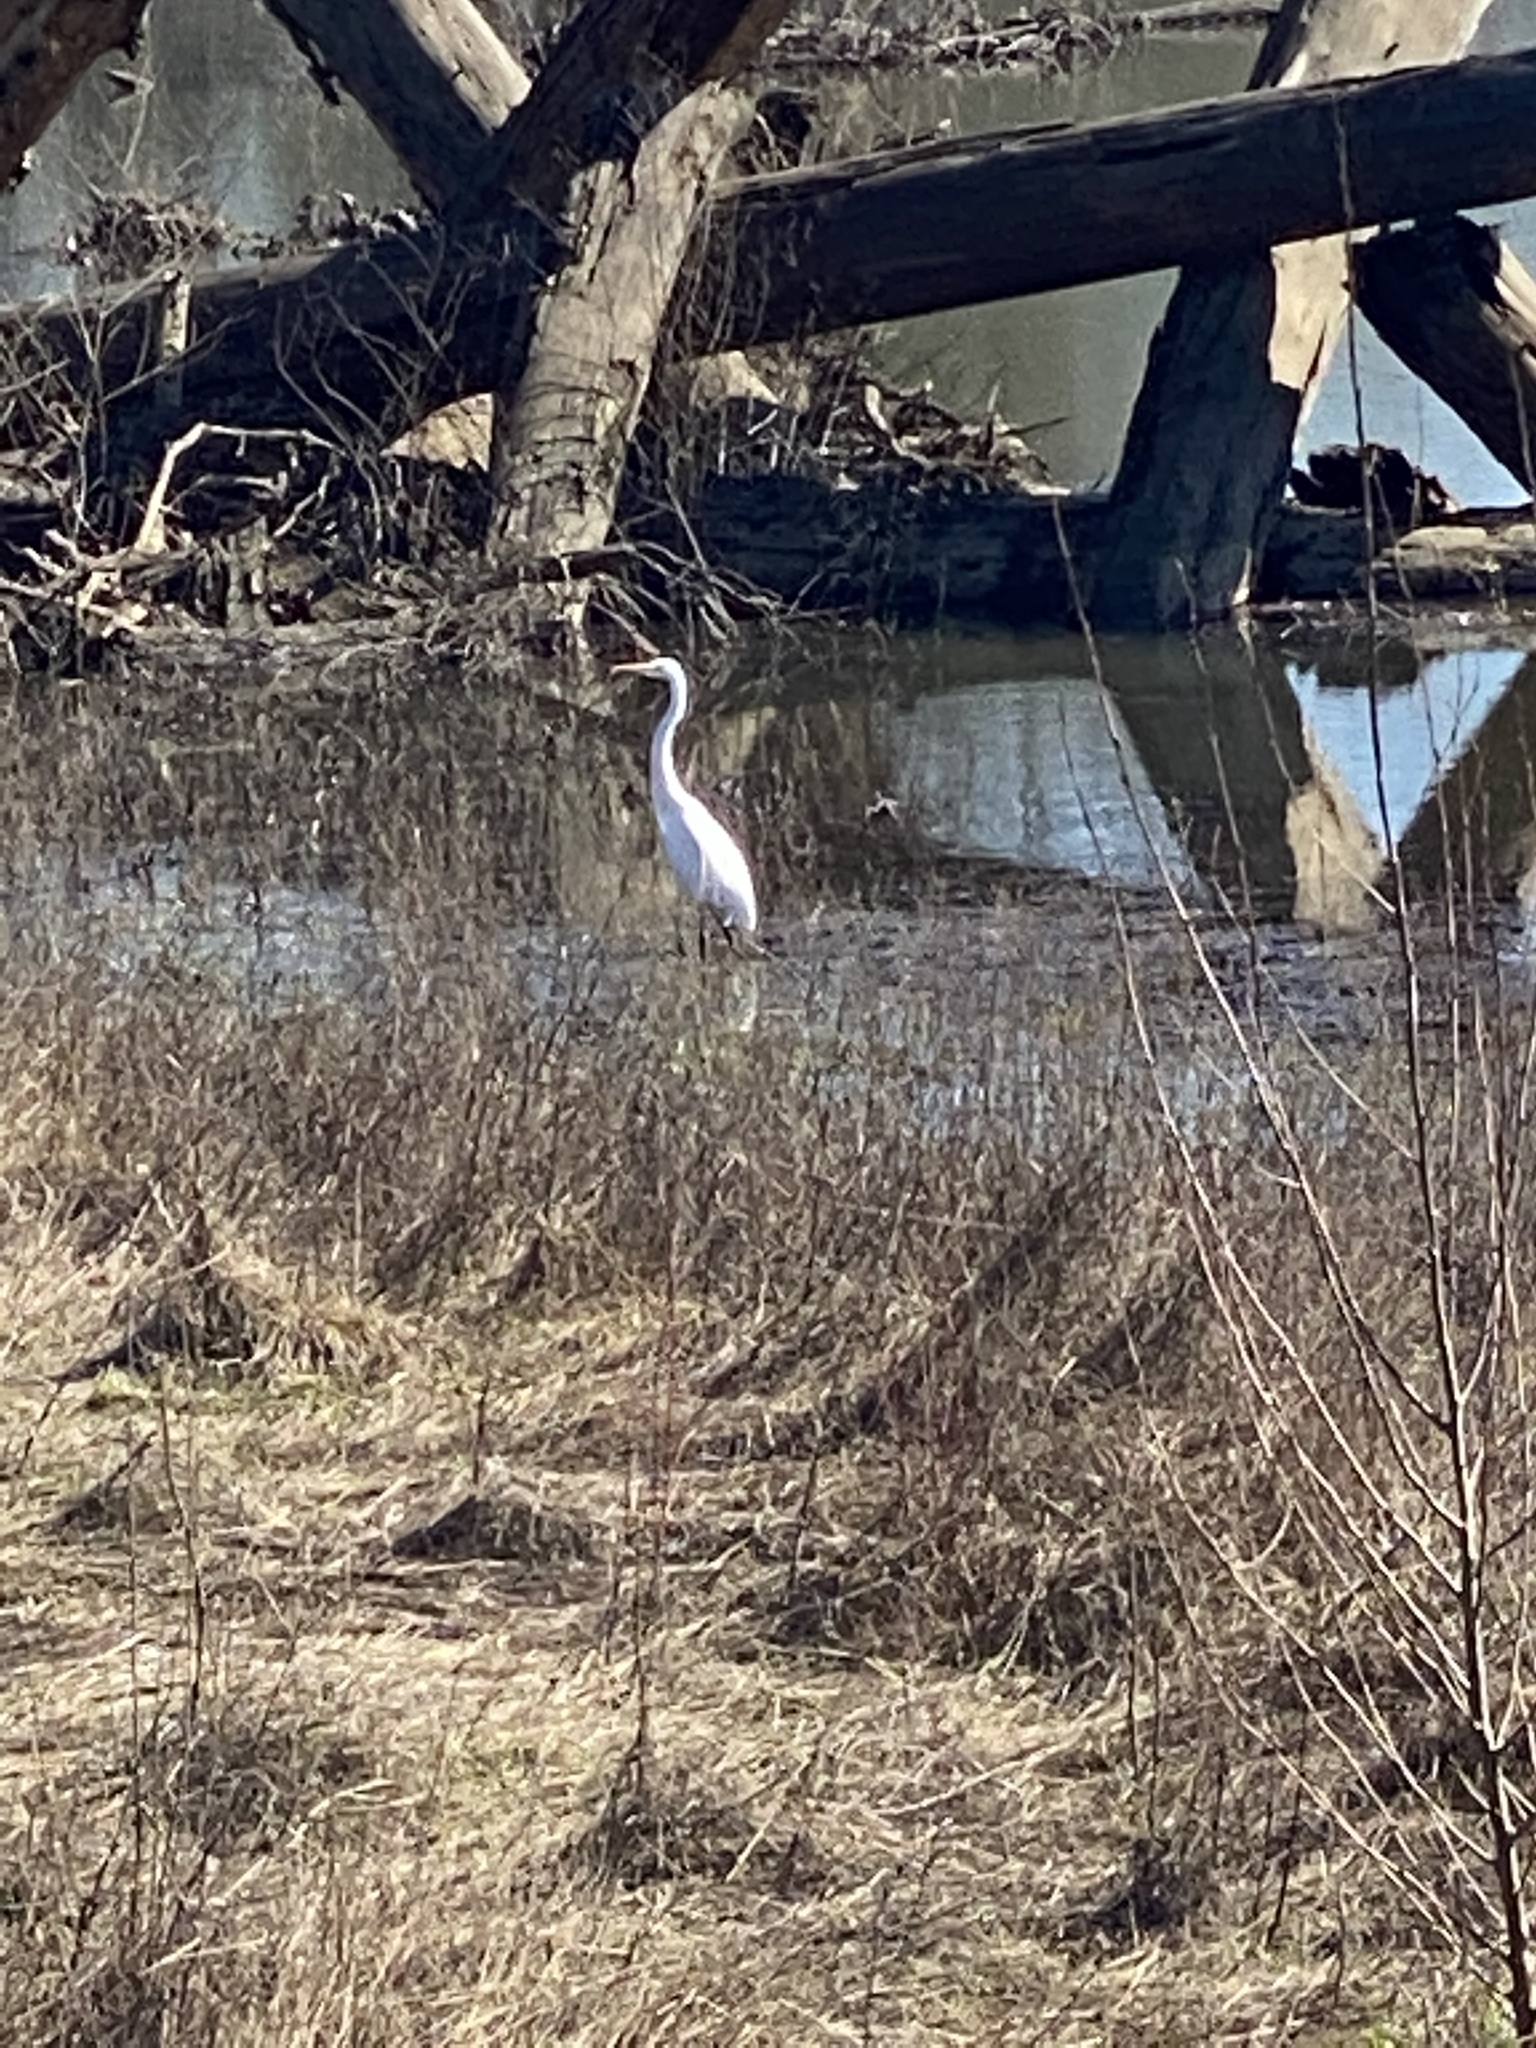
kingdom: Animalia
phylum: Chordata
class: Aves
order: Pelecaniformes
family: Ardeidae
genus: Ardea
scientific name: Ardea alba
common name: Great egret
